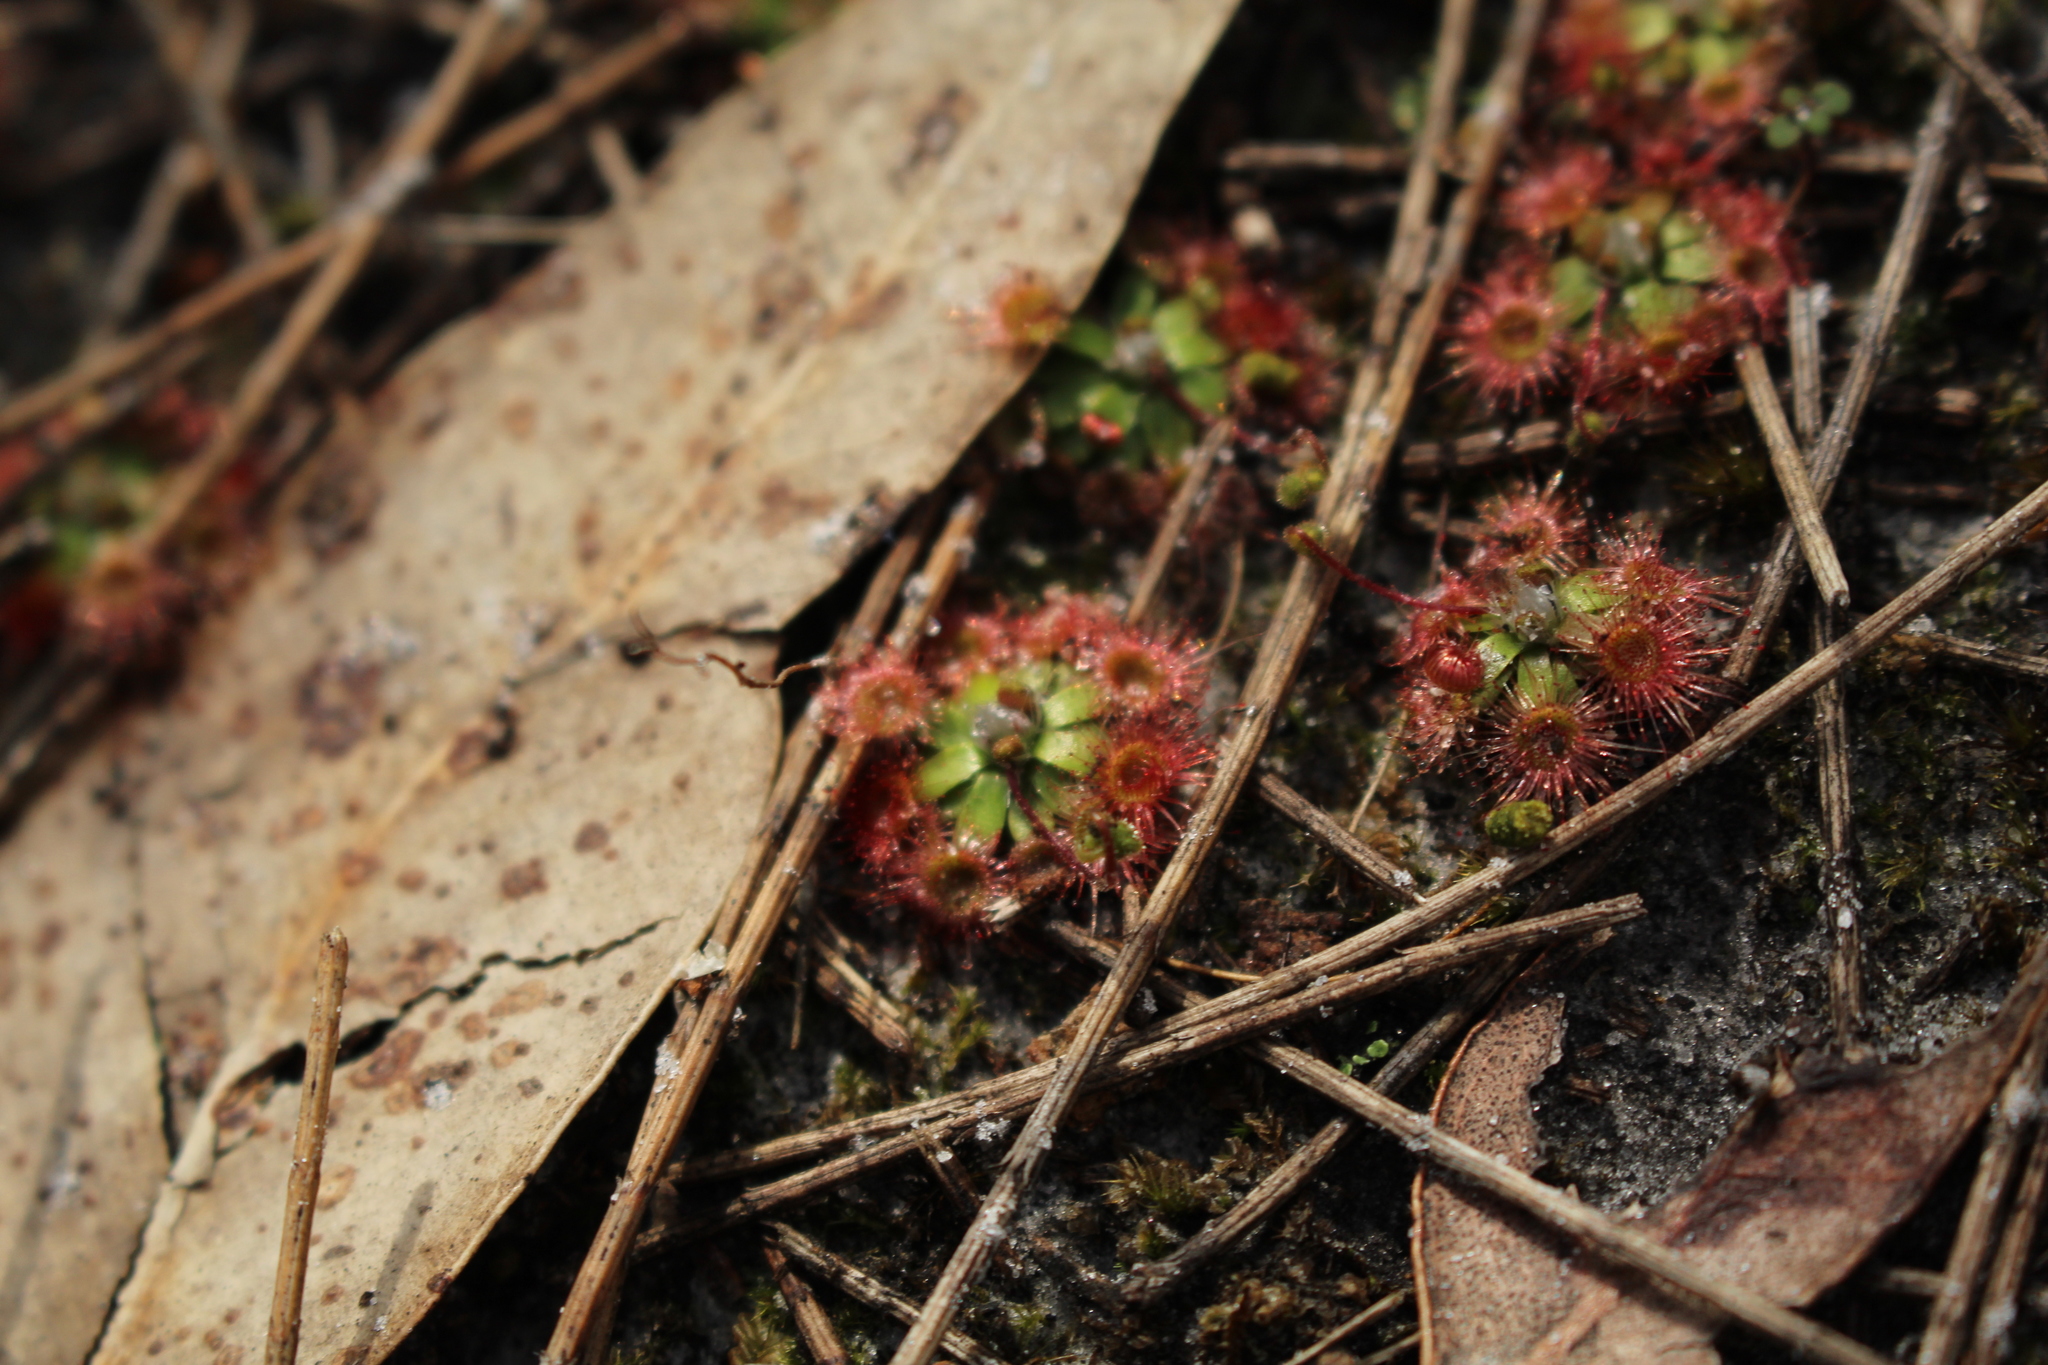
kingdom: Plantae
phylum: Tracheophyta
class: Magnoliopsida
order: Caryophyllales
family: Droseraceae
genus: Drosera
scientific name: Drosera pulchella
